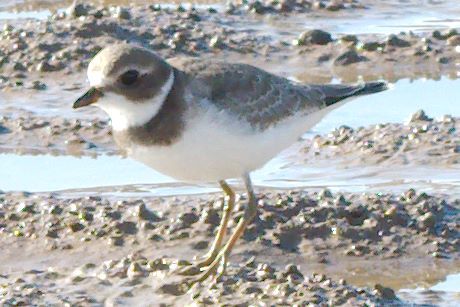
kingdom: Animalia
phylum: Chordata
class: Aves
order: Charadriiformes
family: Charadriidae
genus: Charadrius
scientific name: Charadrius semipalmatus
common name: Semipalmated plover
